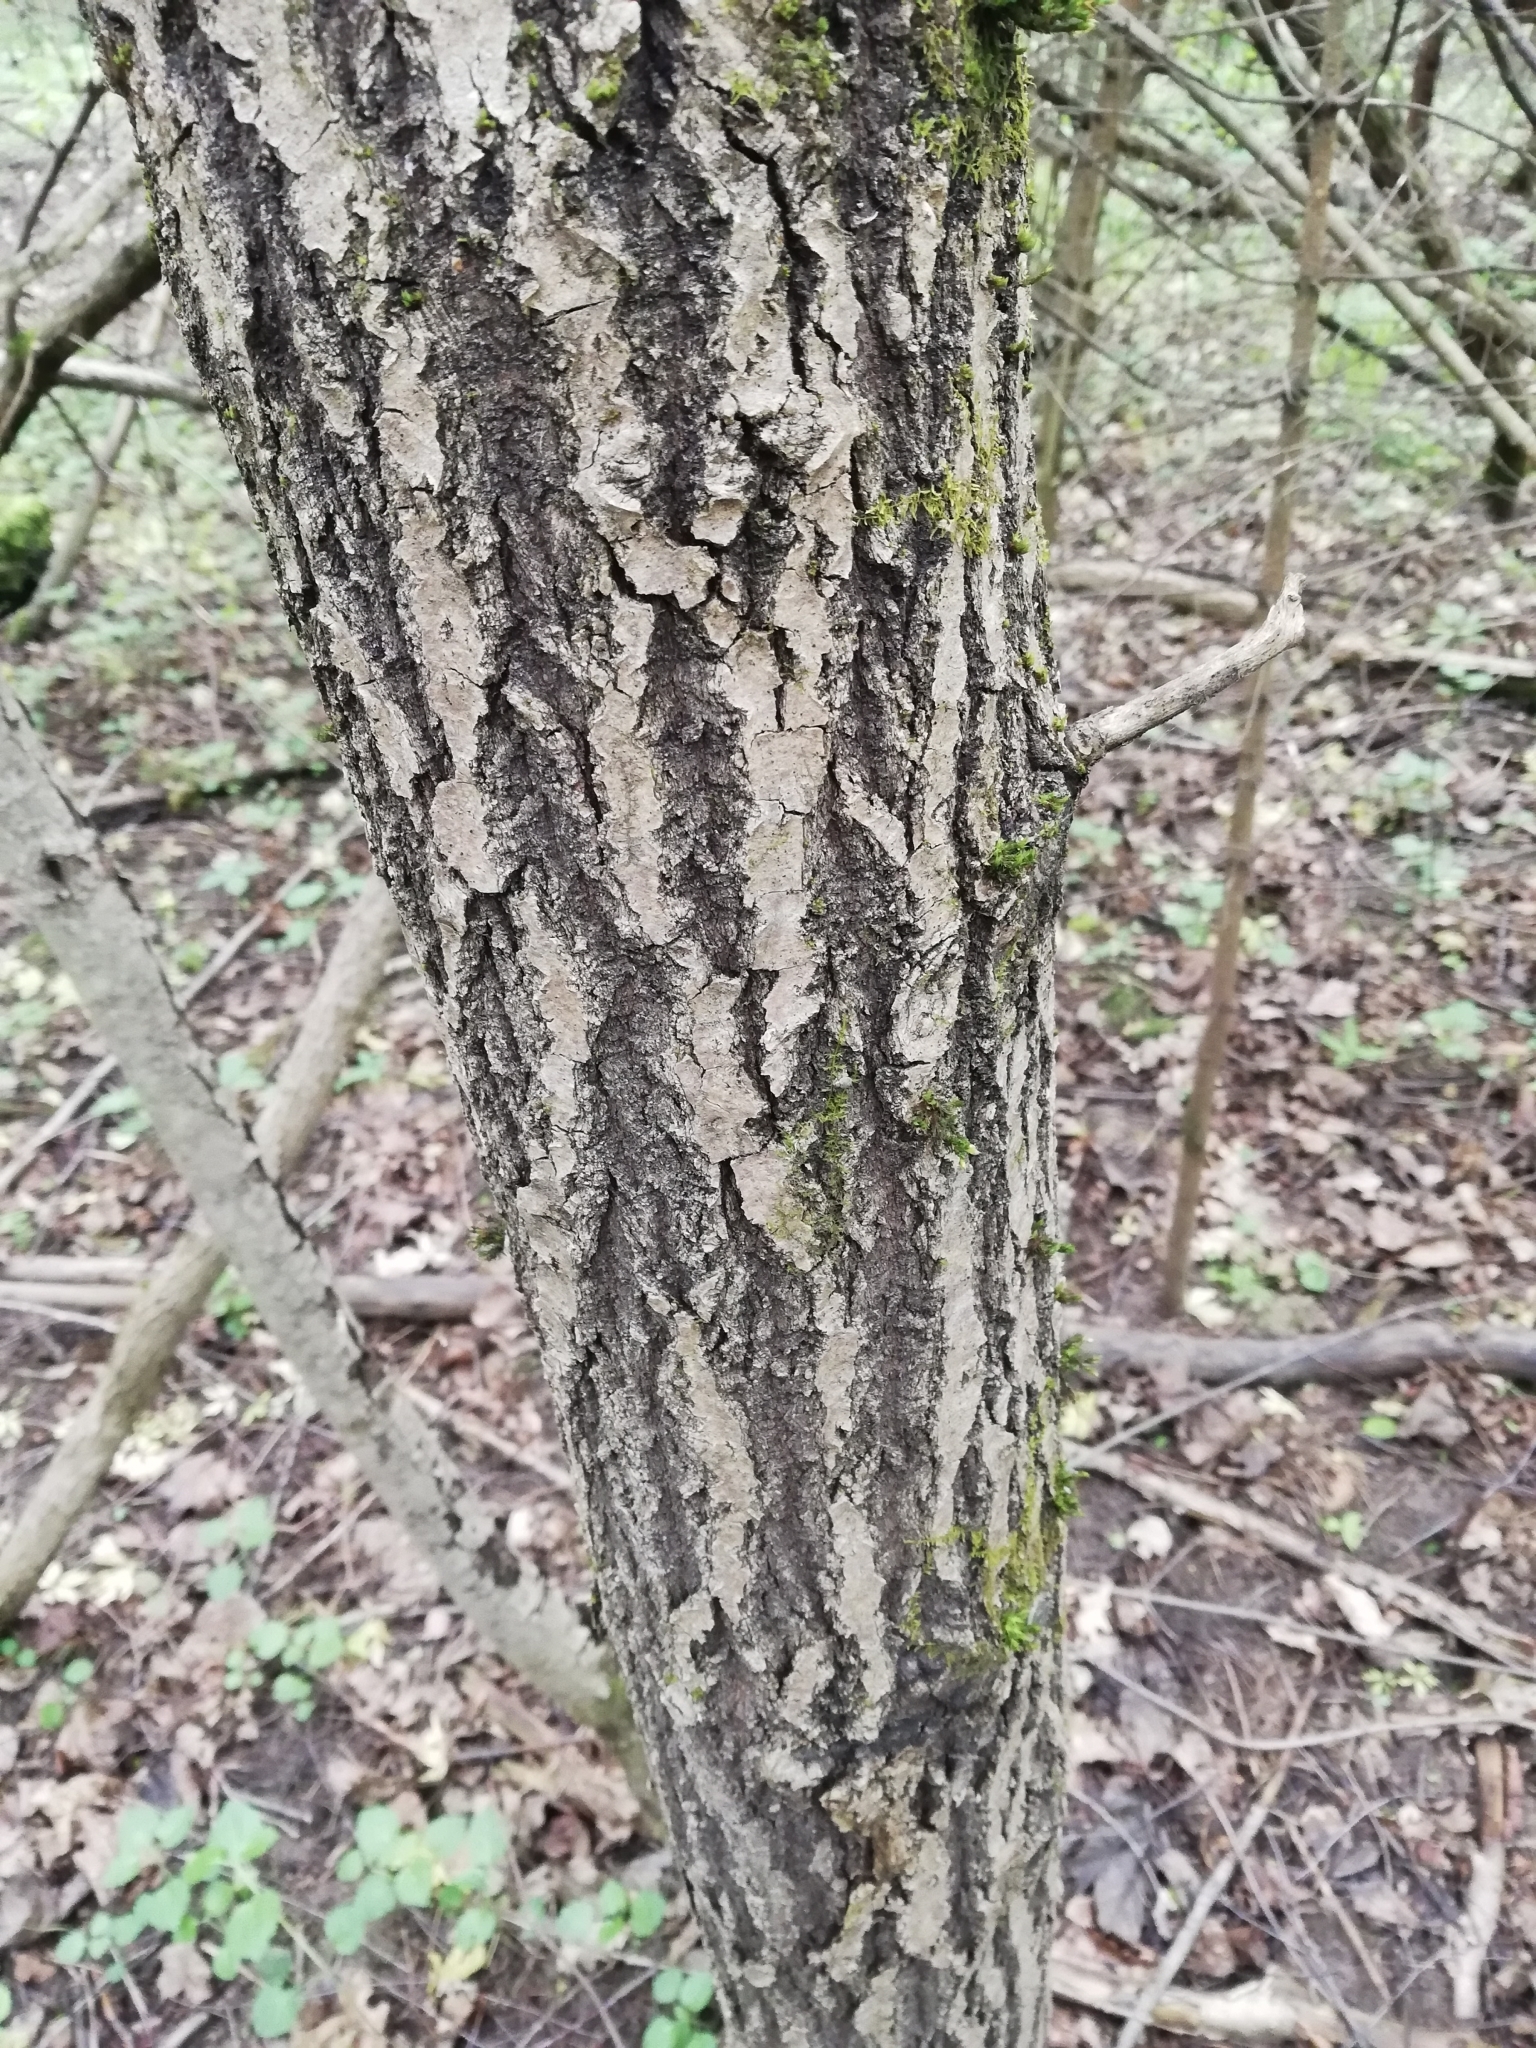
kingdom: Plantae
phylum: Tracheophyta
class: Magnoliopsida
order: Malpighiales
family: Salicaceae
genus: Salix
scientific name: Salix caprea
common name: Goat willow
